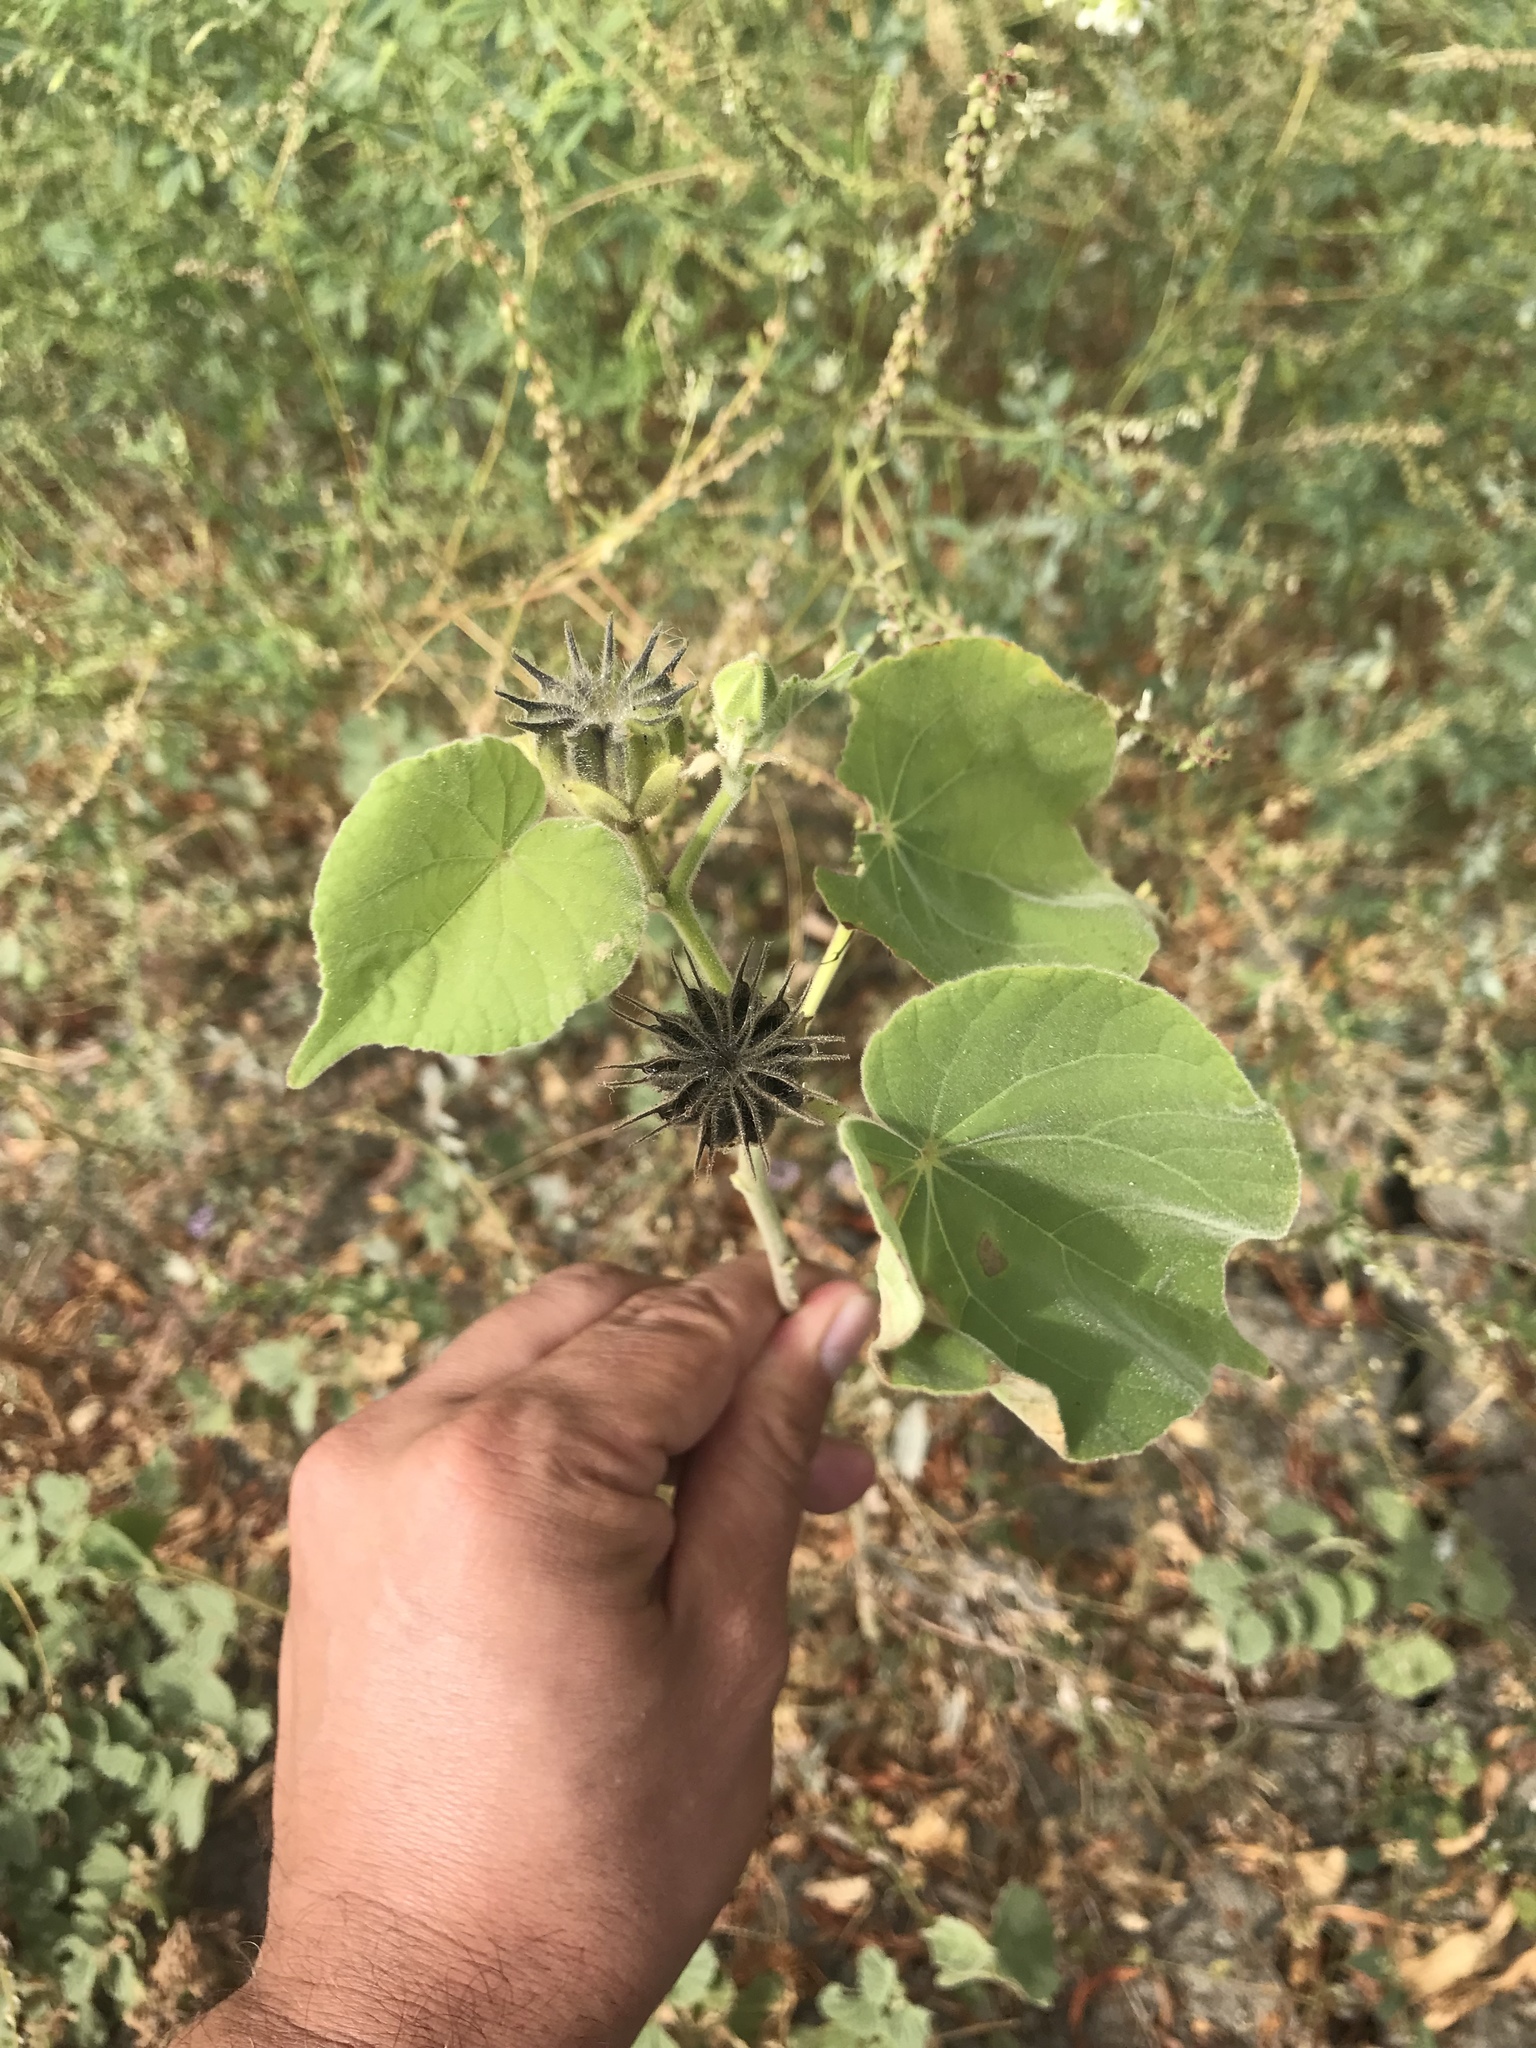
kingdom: Plantae
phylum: Tracheophyta
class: Magnoliopsida
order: Malvales
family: Malvaceae
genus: Abutilon
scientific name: Abutilon theophrasti
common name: Velvetleaf
